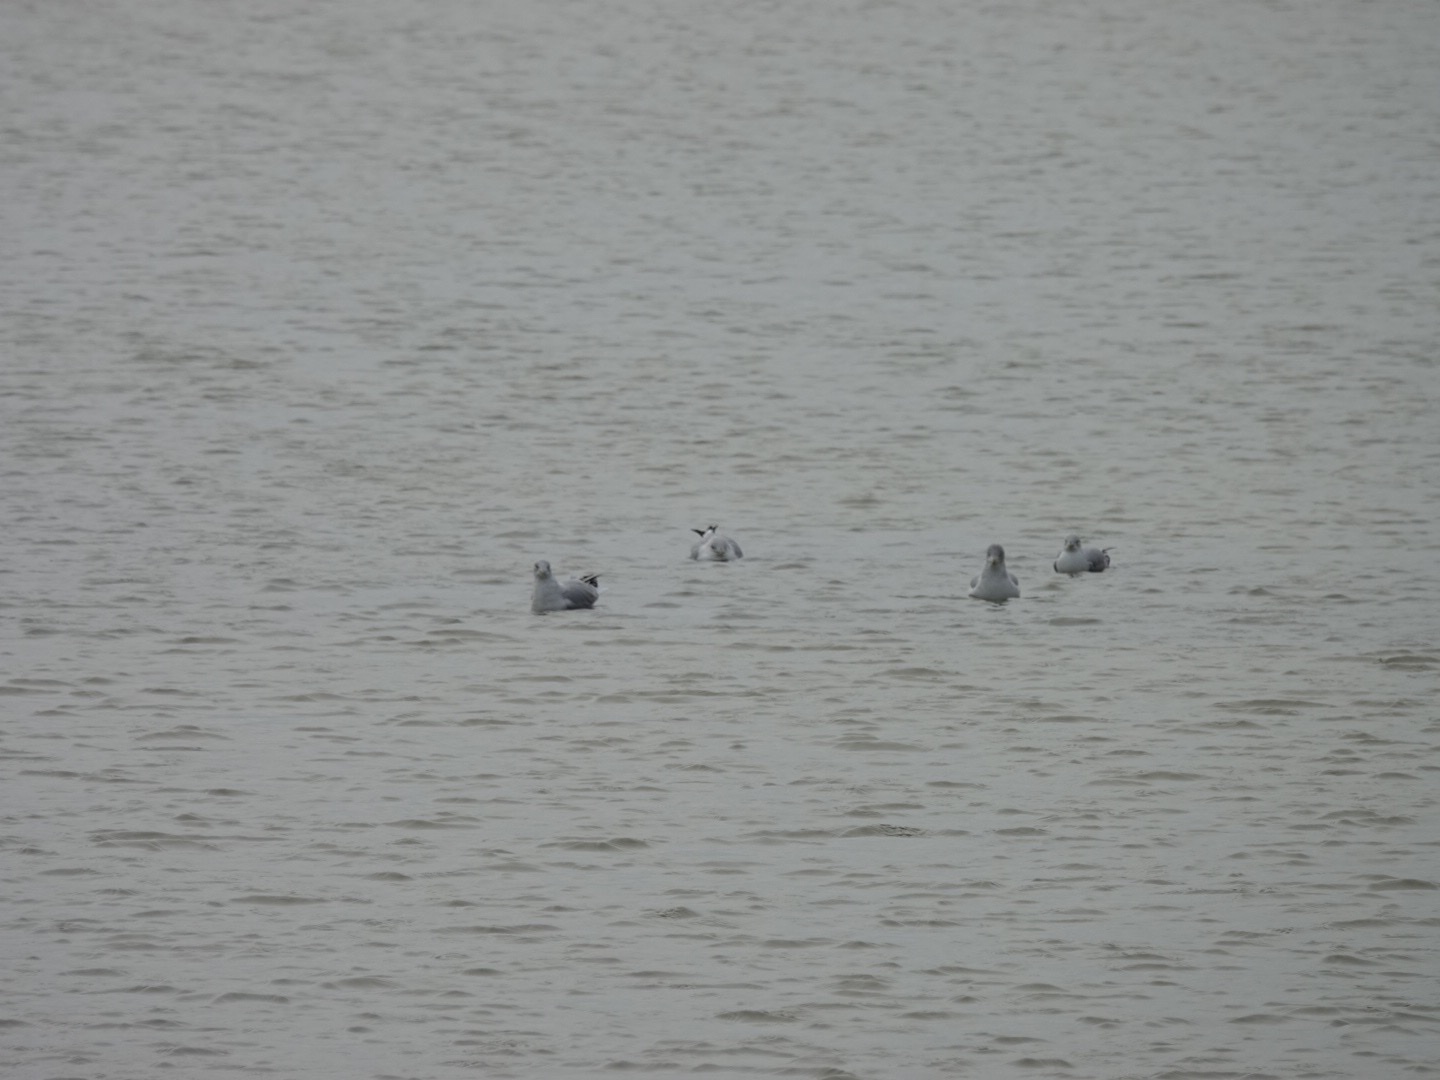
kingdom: Animalia
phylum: Chordata
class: Aves
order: Charadriiformes
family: Laridae
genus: Larus
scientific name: Larus delawarensis
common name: Ring-billed gull
